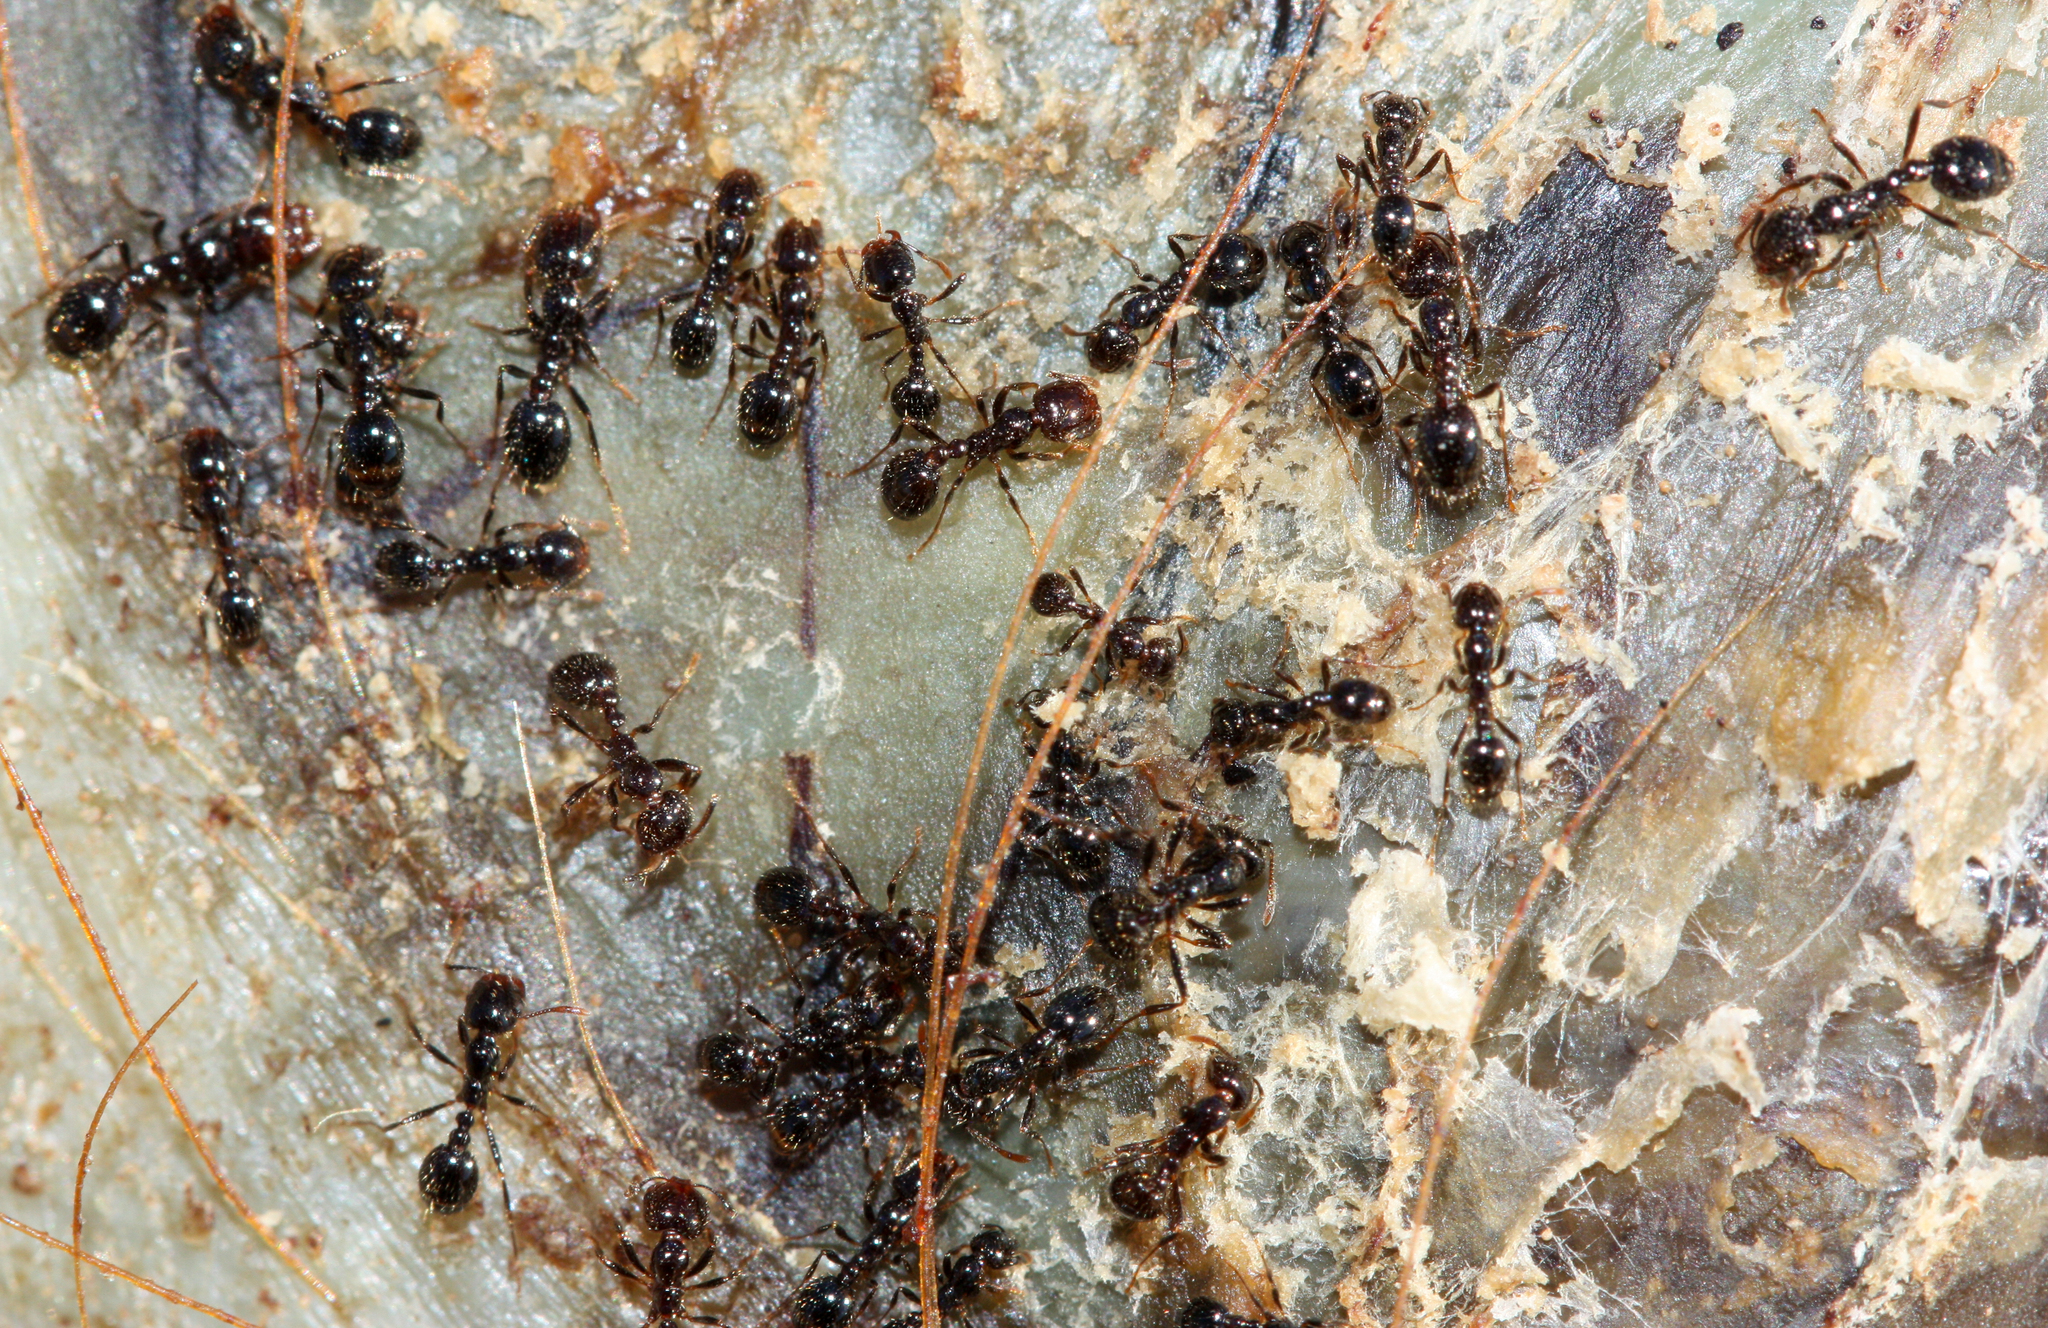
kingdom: Animalia
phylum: Arthropoda
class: Insecta
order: Hymenoptera
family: Formicidae
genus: Solenopsis
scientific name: Solenopsis xyloni
